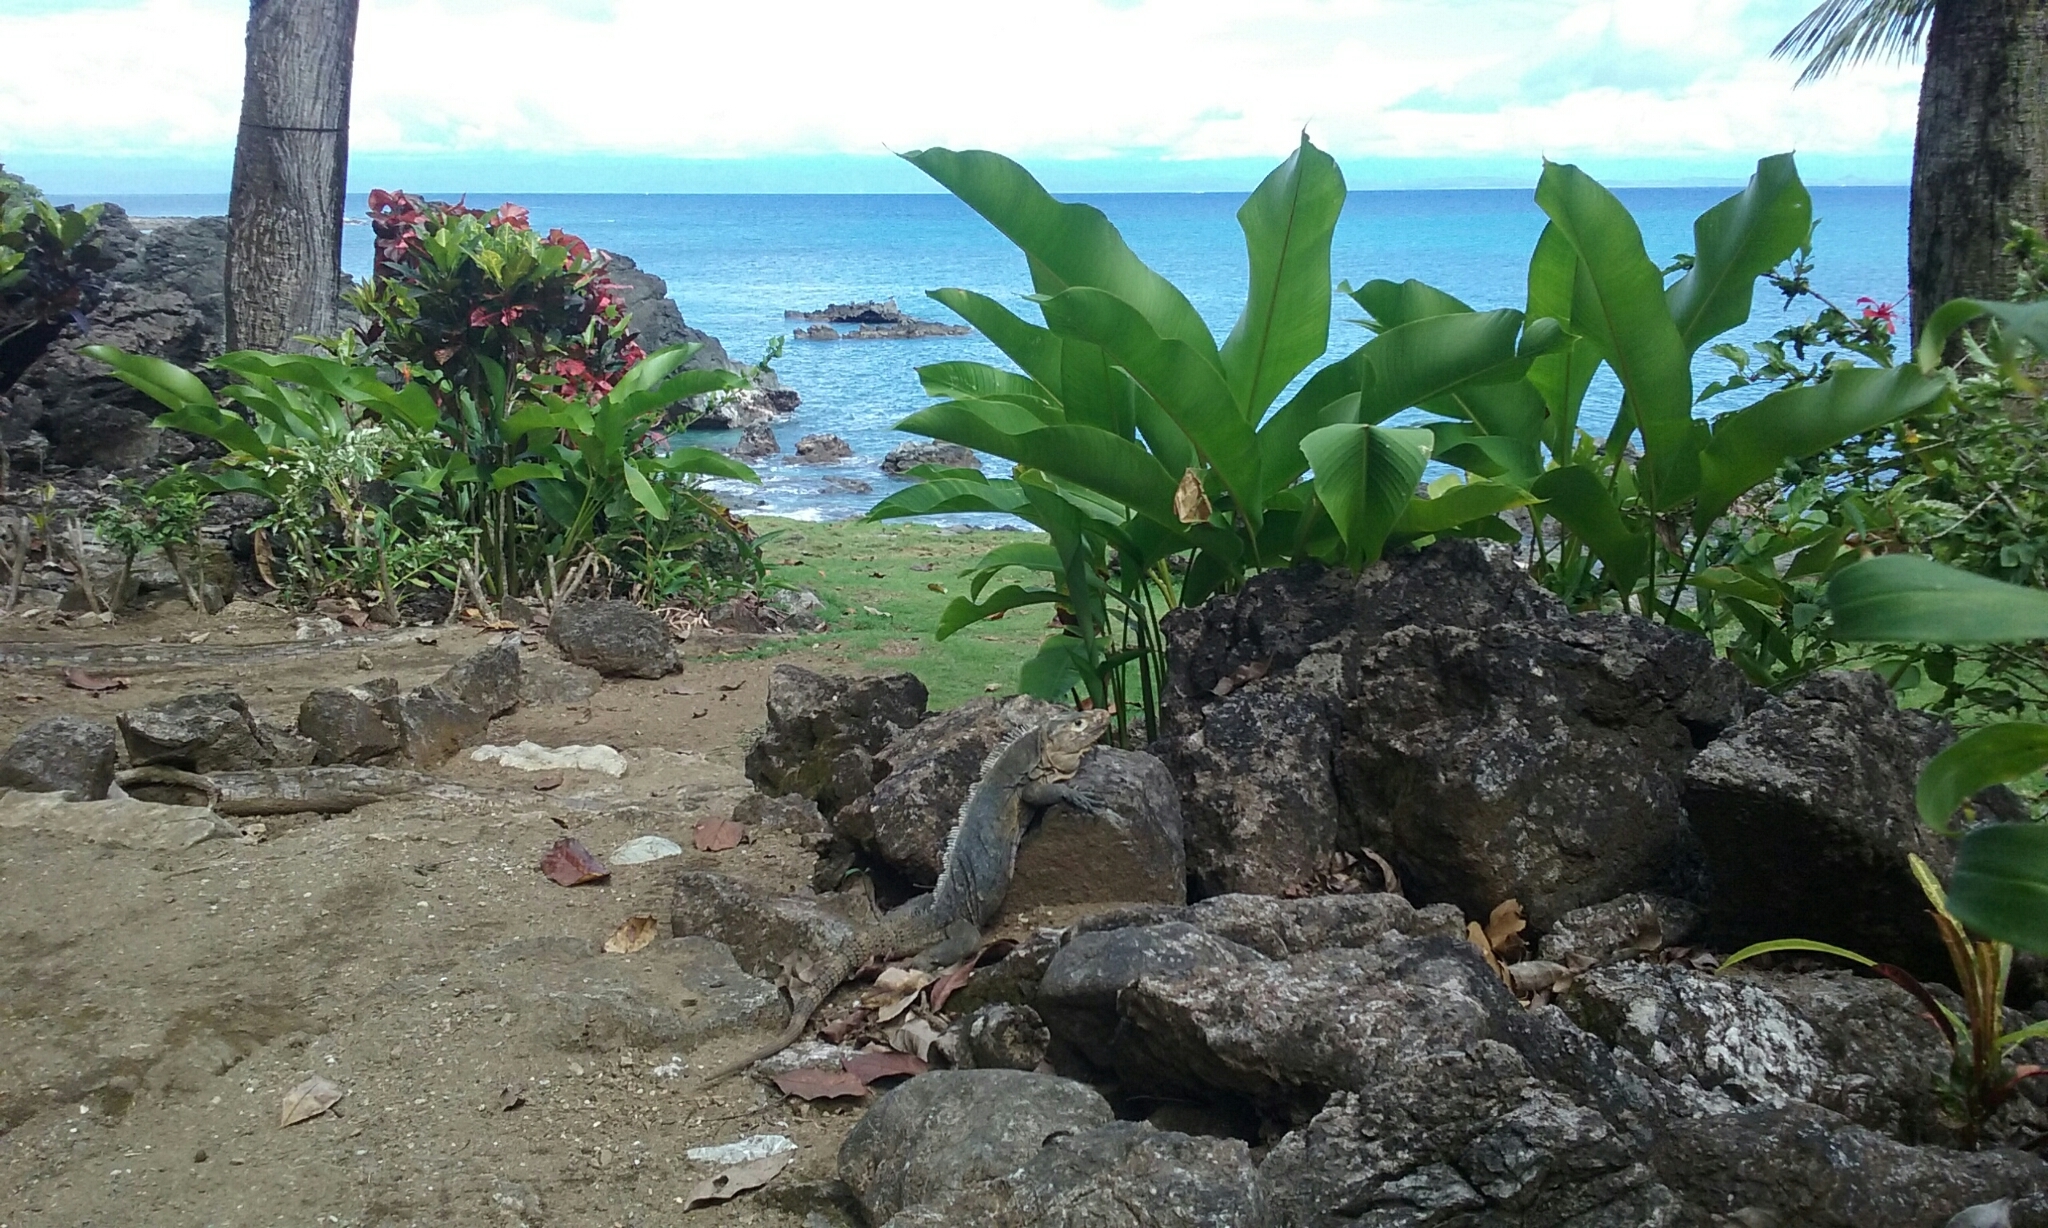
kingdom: Animalia
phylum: Chordata
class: Squamata
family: Iguanidae
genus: Ctenosaura
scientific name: Ctenosaura similis
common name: Black spiny-tailed iguana
